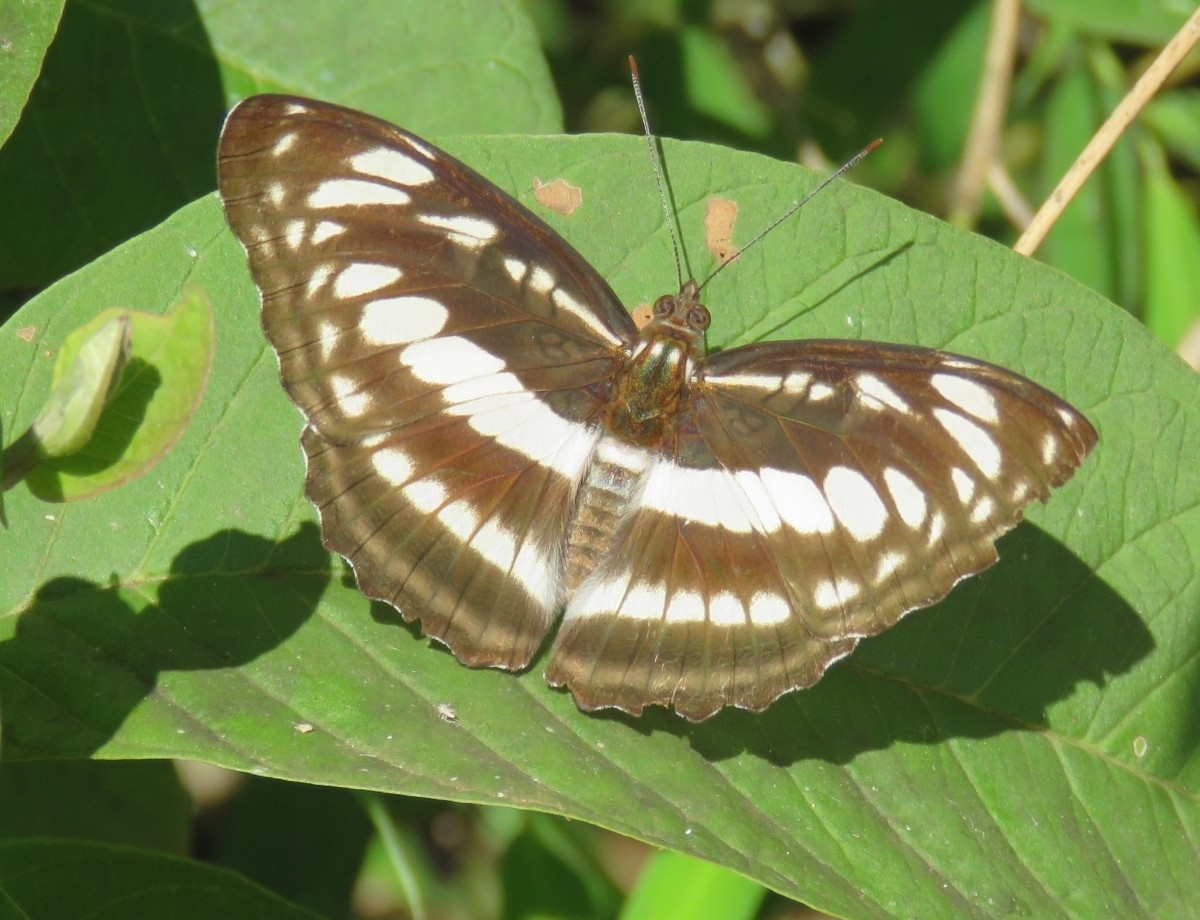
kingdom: Animalia
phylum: Arthropoda
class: Insecta
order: Lepidoptera
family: Nymphalidae
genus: Parathyma
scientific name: Parathyma selenophora
